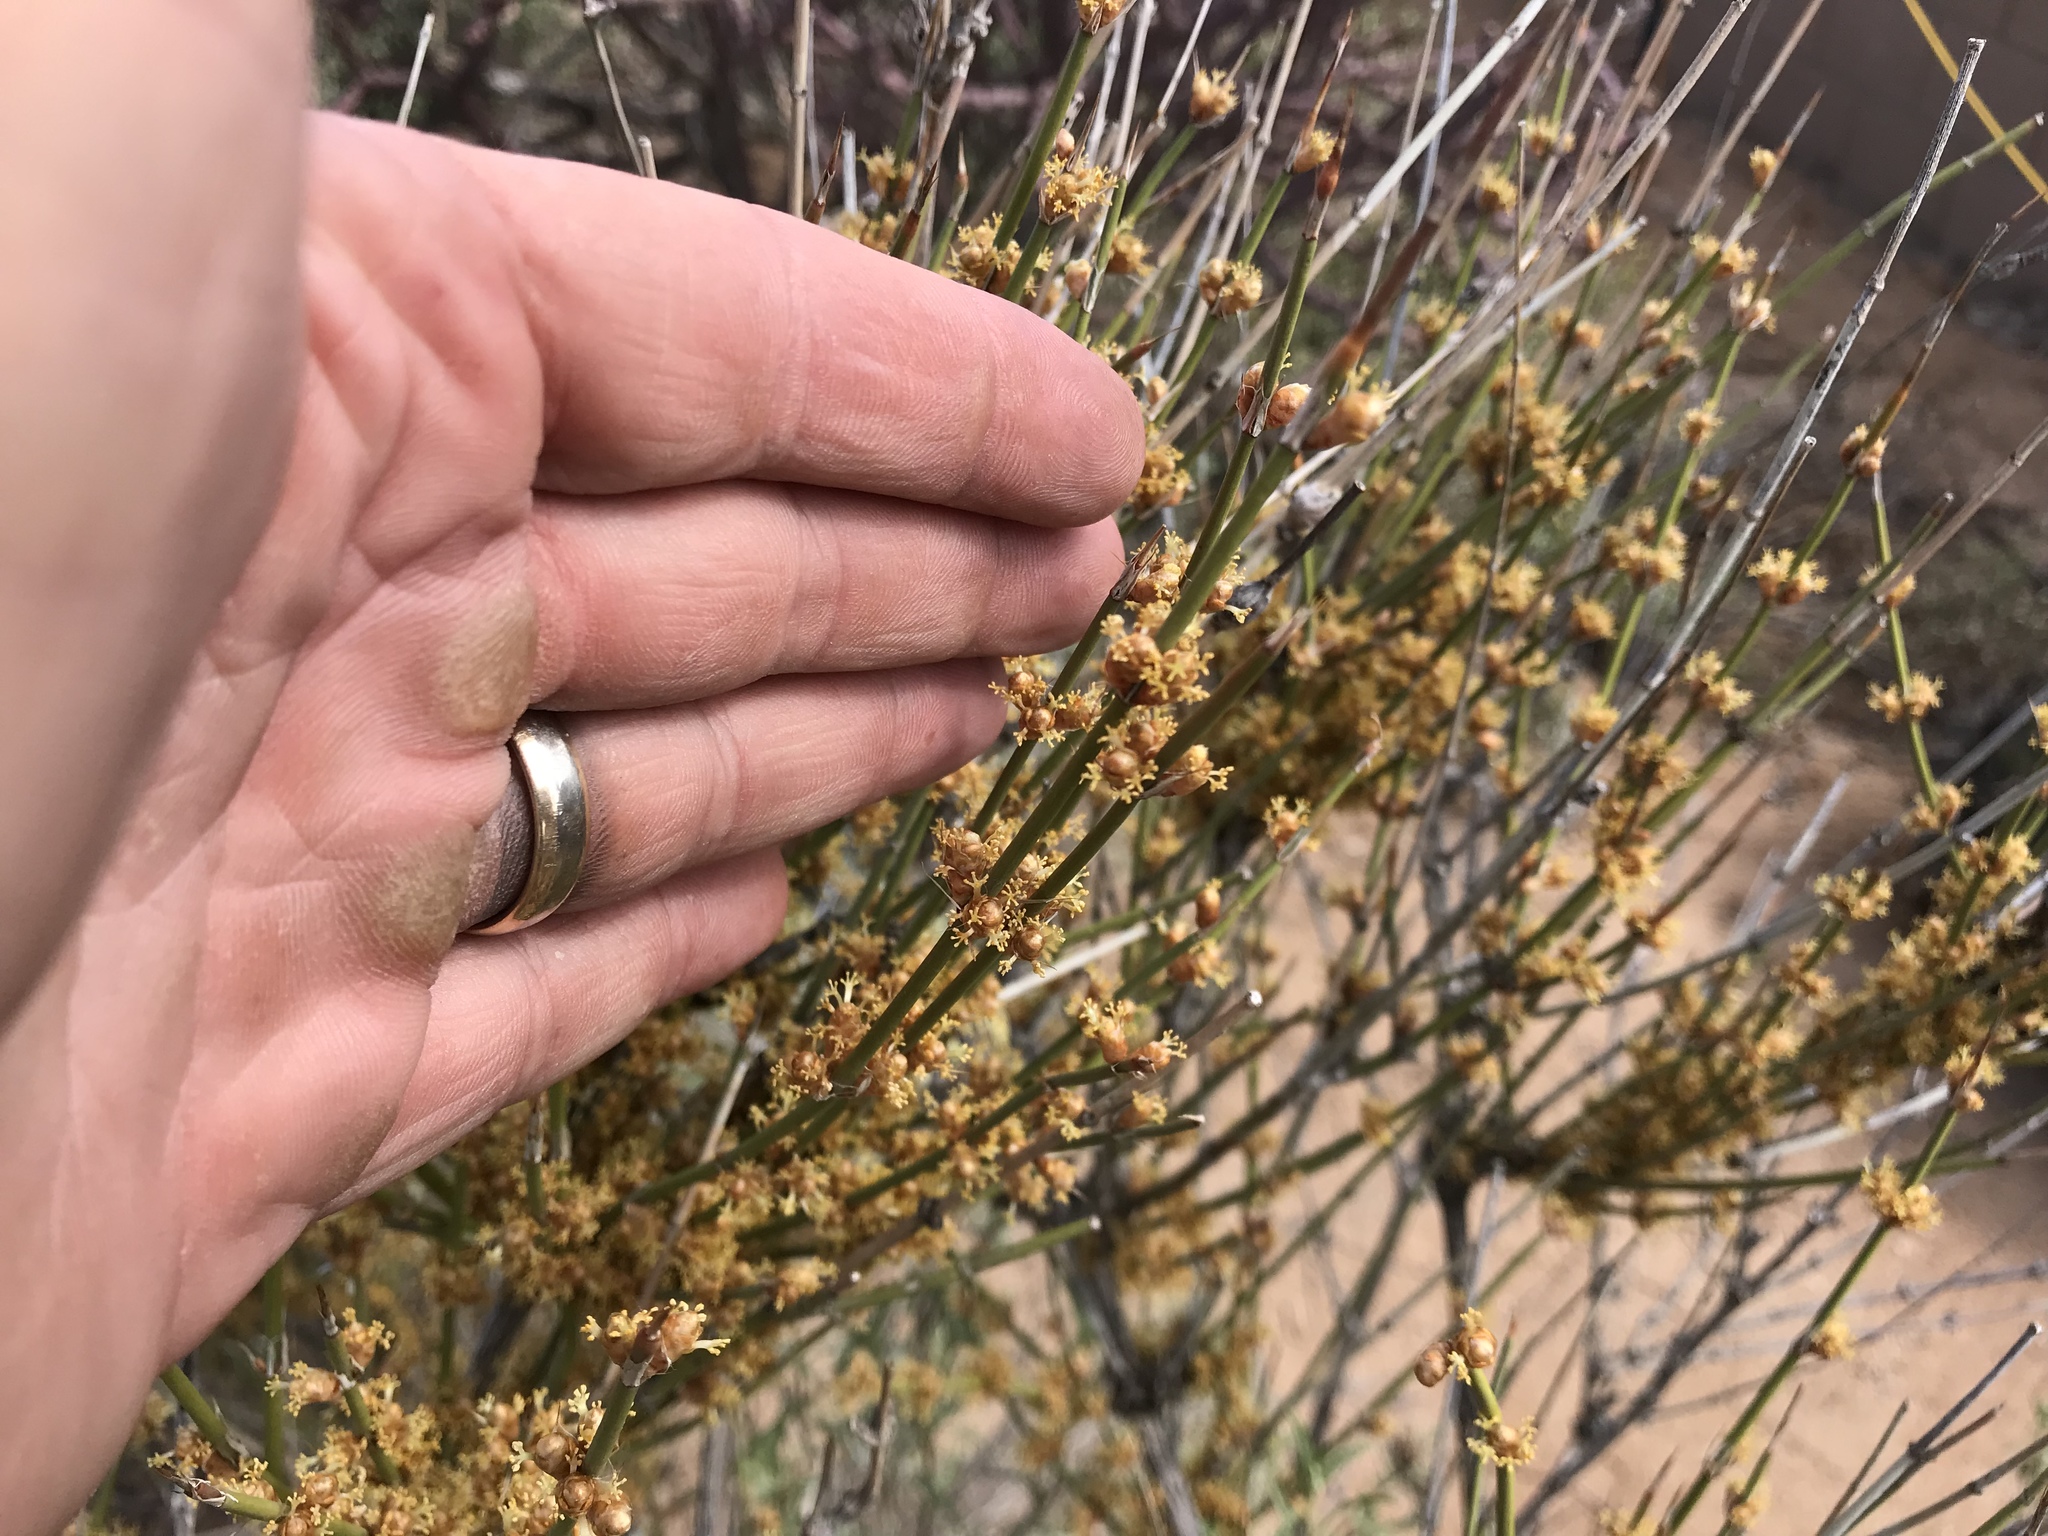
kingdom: Plantae
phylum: Tracheophyta
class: Gnetopsida
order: Ephedrales
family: Ephedraceae
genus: Ephedra
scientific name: Ephedra viridis
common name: Green ephedra
